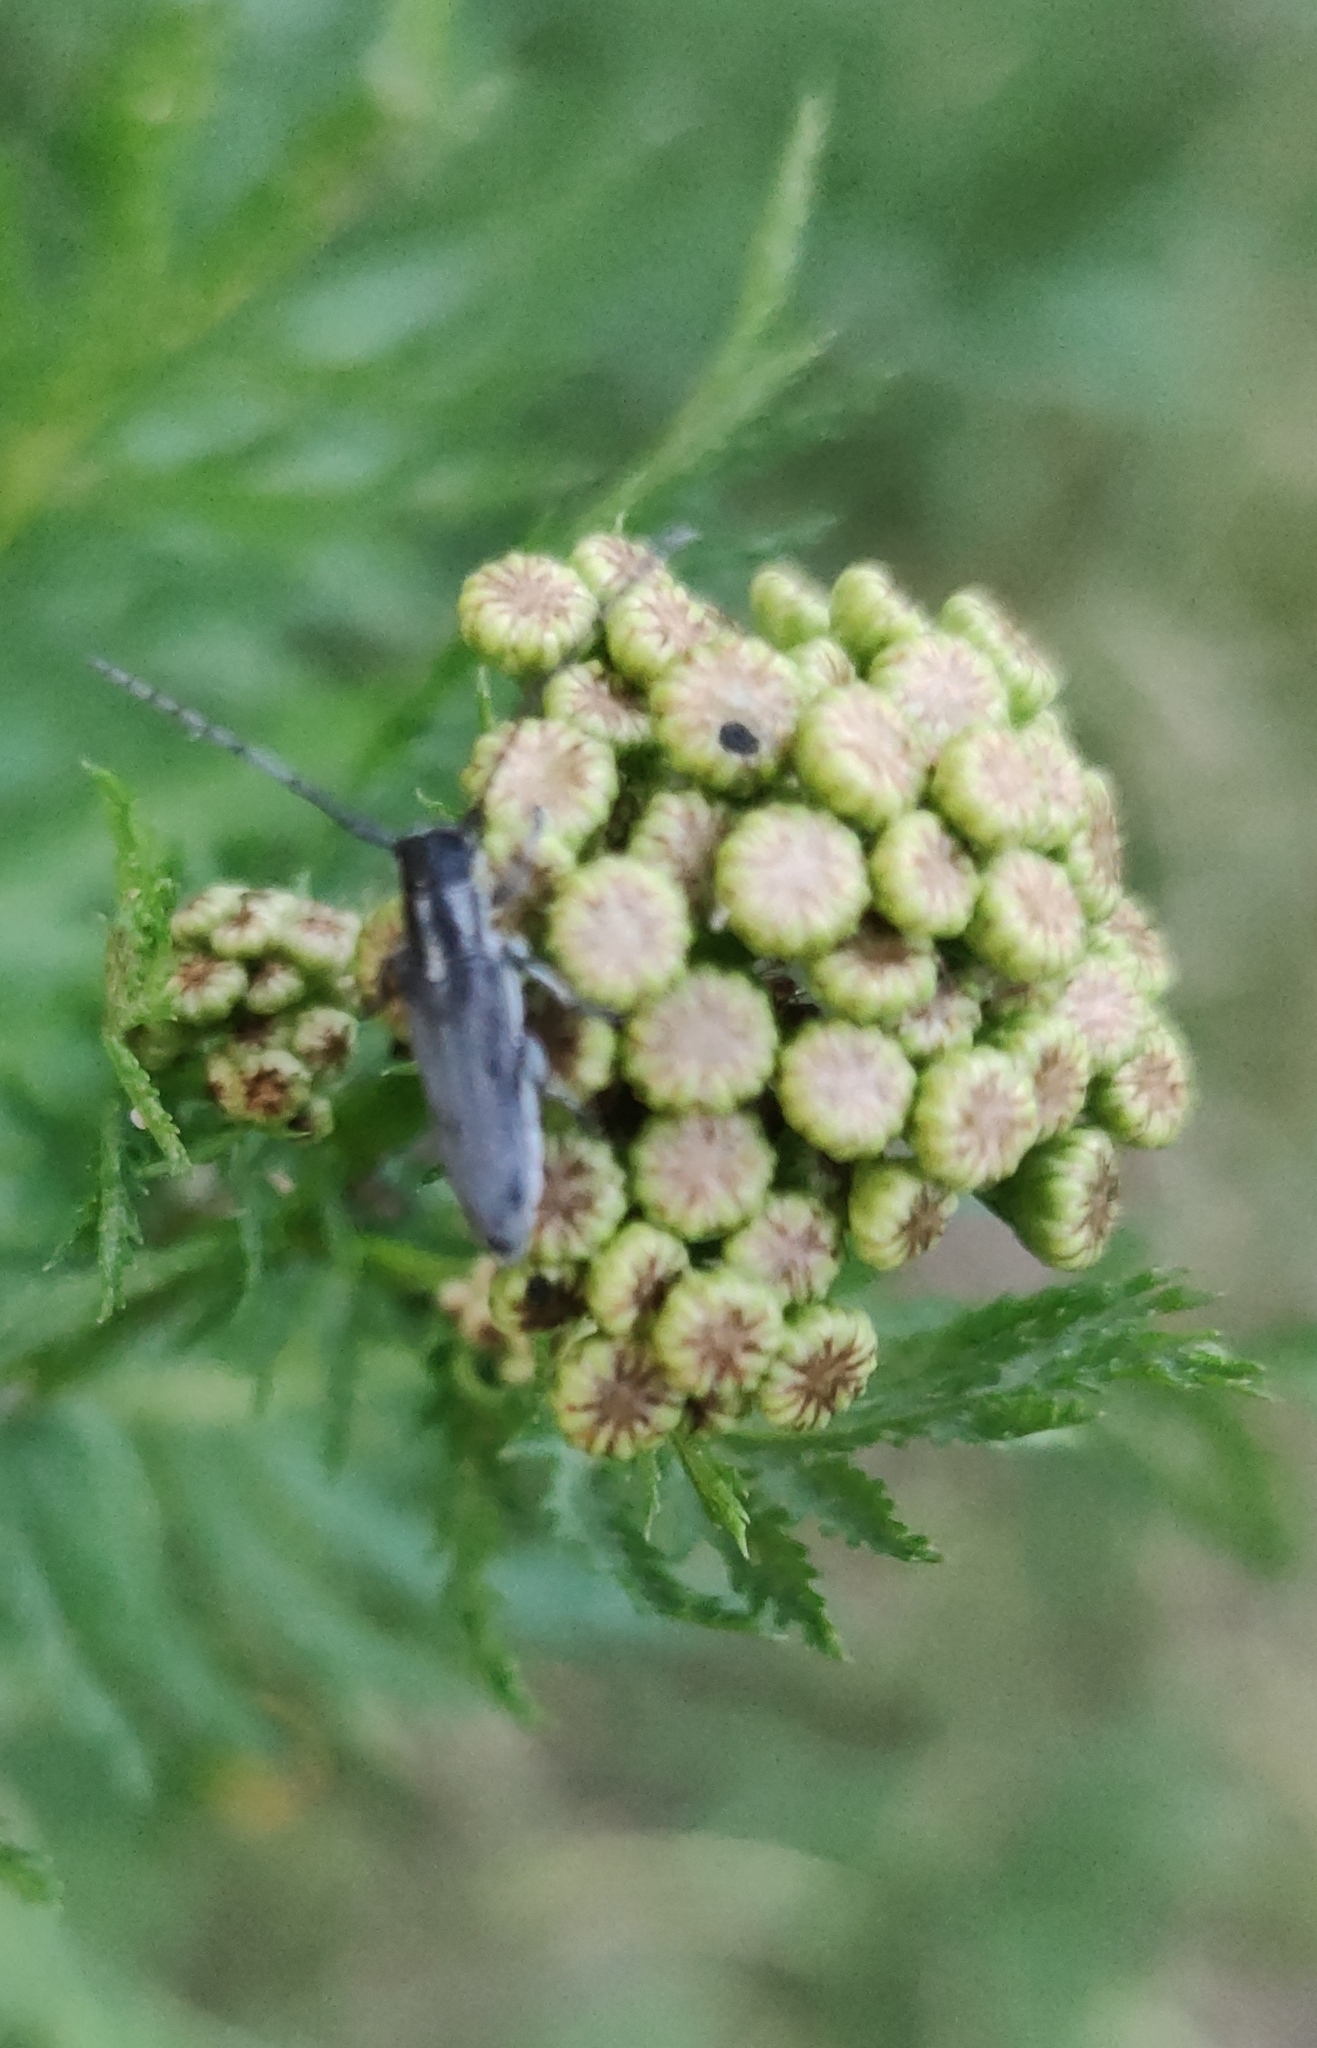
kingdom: Animalia
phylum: Arthropoda
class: Insecta
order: Coleoptera
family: Cerambycidae
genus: Phytoecia
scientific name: Phytoecia nigricornis
